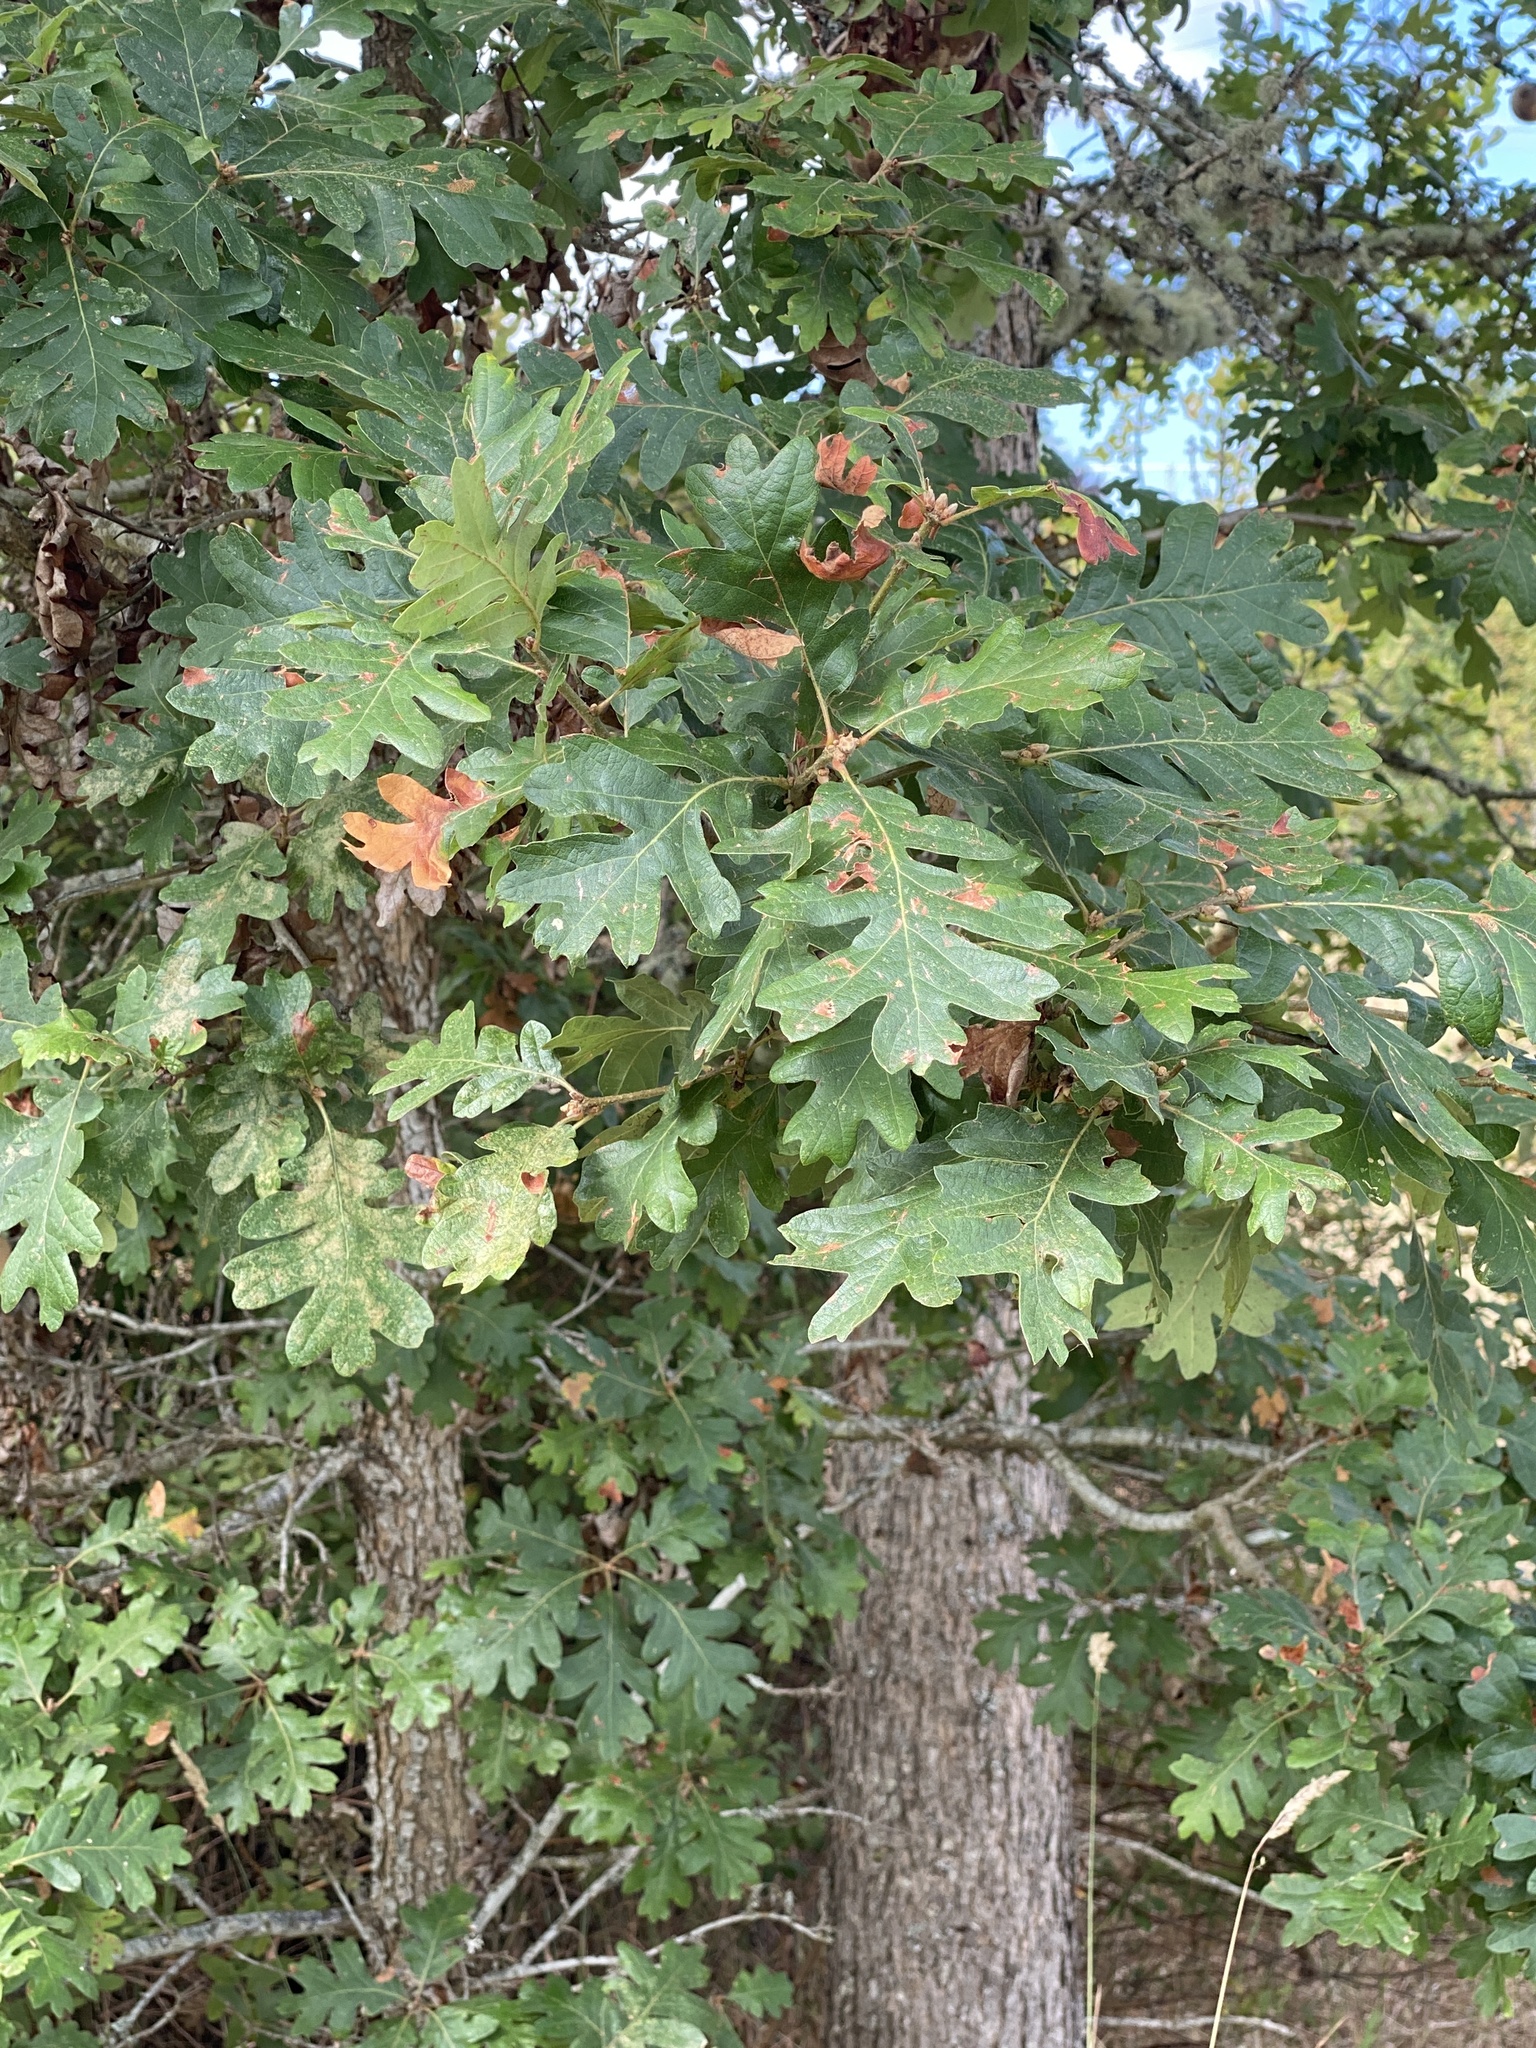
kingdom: Plantae
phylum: Tracheophyta
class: Magnoliopsida
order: Fagales
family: Fagaceae
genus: Quercus
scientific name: Quercus garryana
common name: Garry oak
